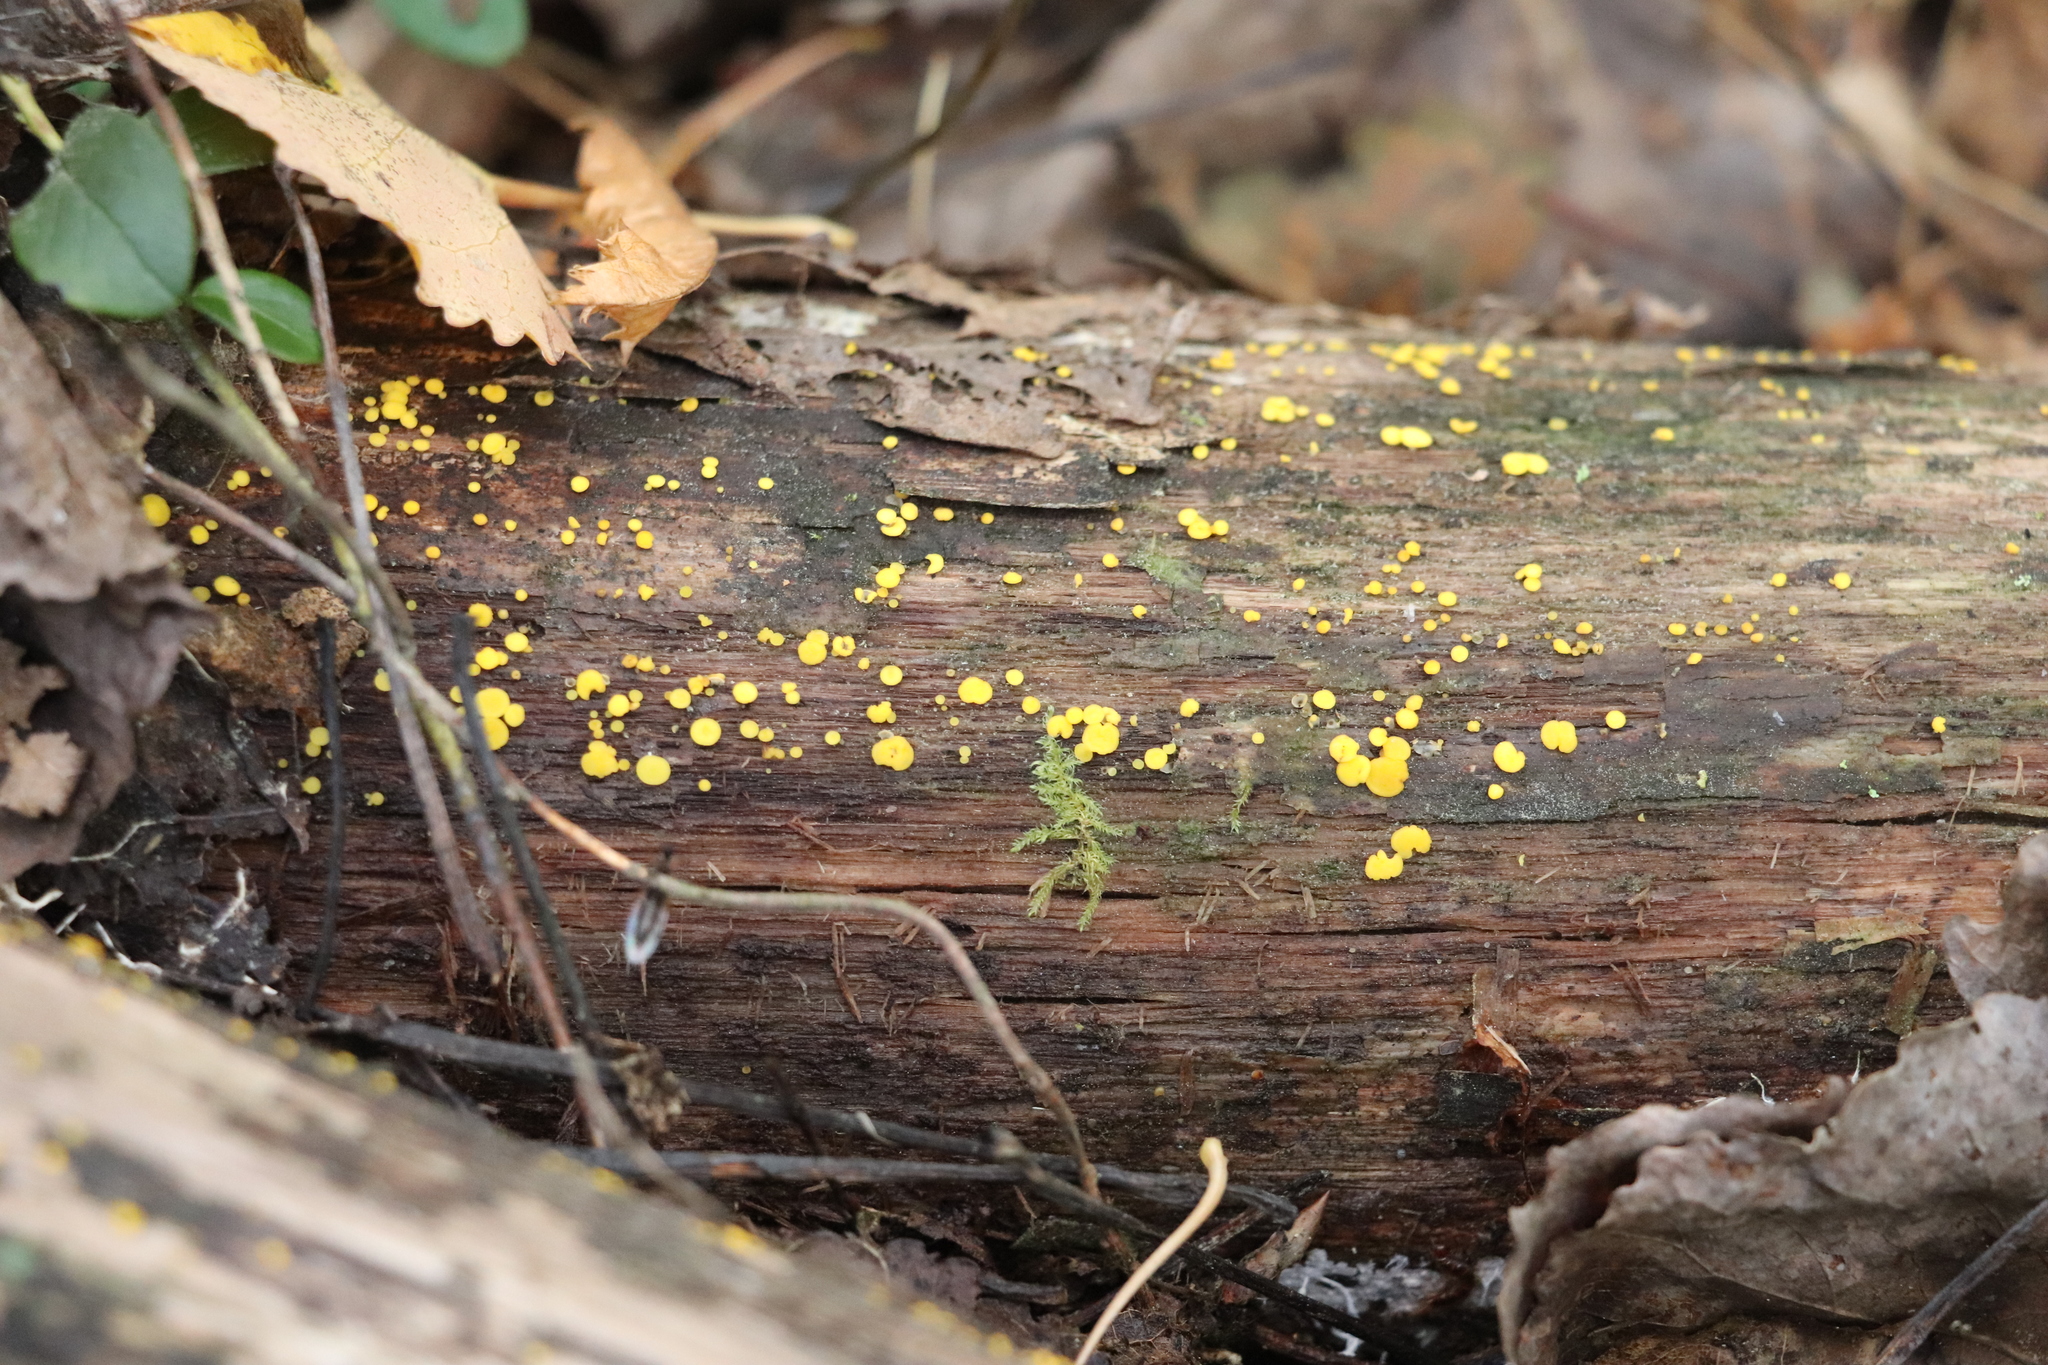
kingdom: Fungi
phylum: Ascomycota
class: Leotiomycetes
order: Helotiales
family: Pezizellaceae
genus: Calycina
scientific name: Calycina citrina
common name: Yellow fairy cups
